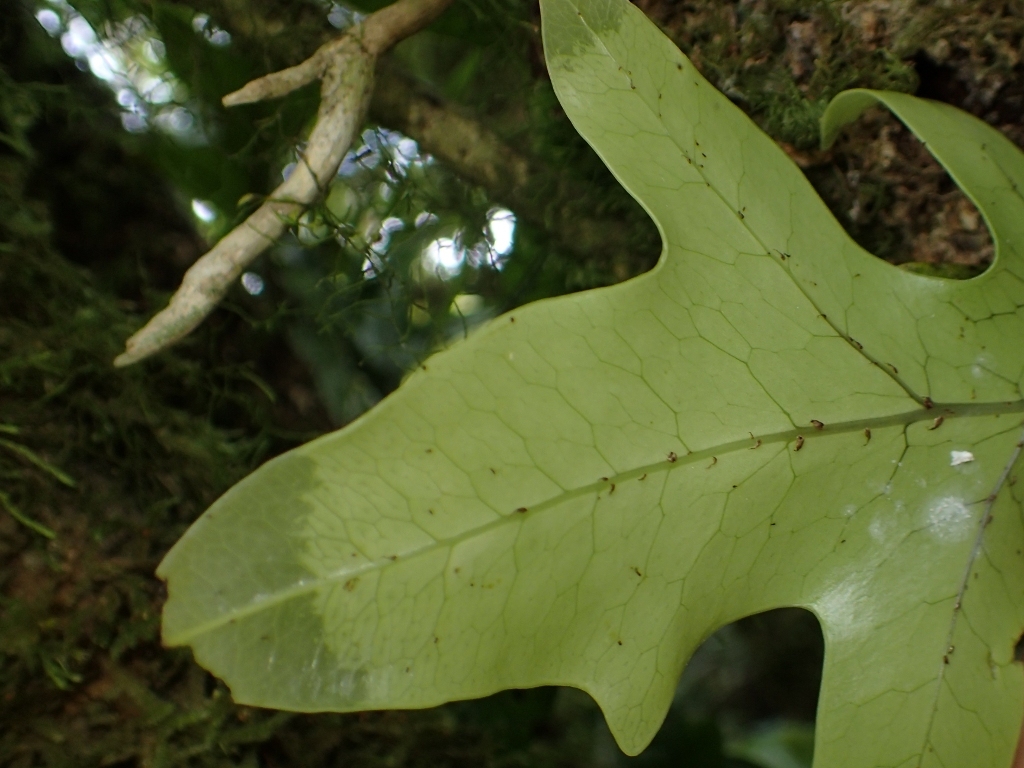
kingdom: Plantae
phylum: Tracheophyta
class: Polypodiopsida
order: Polypodiales
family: Polypodiaceae
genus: Lecanopteris
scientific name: Lecanopteris pustulata
